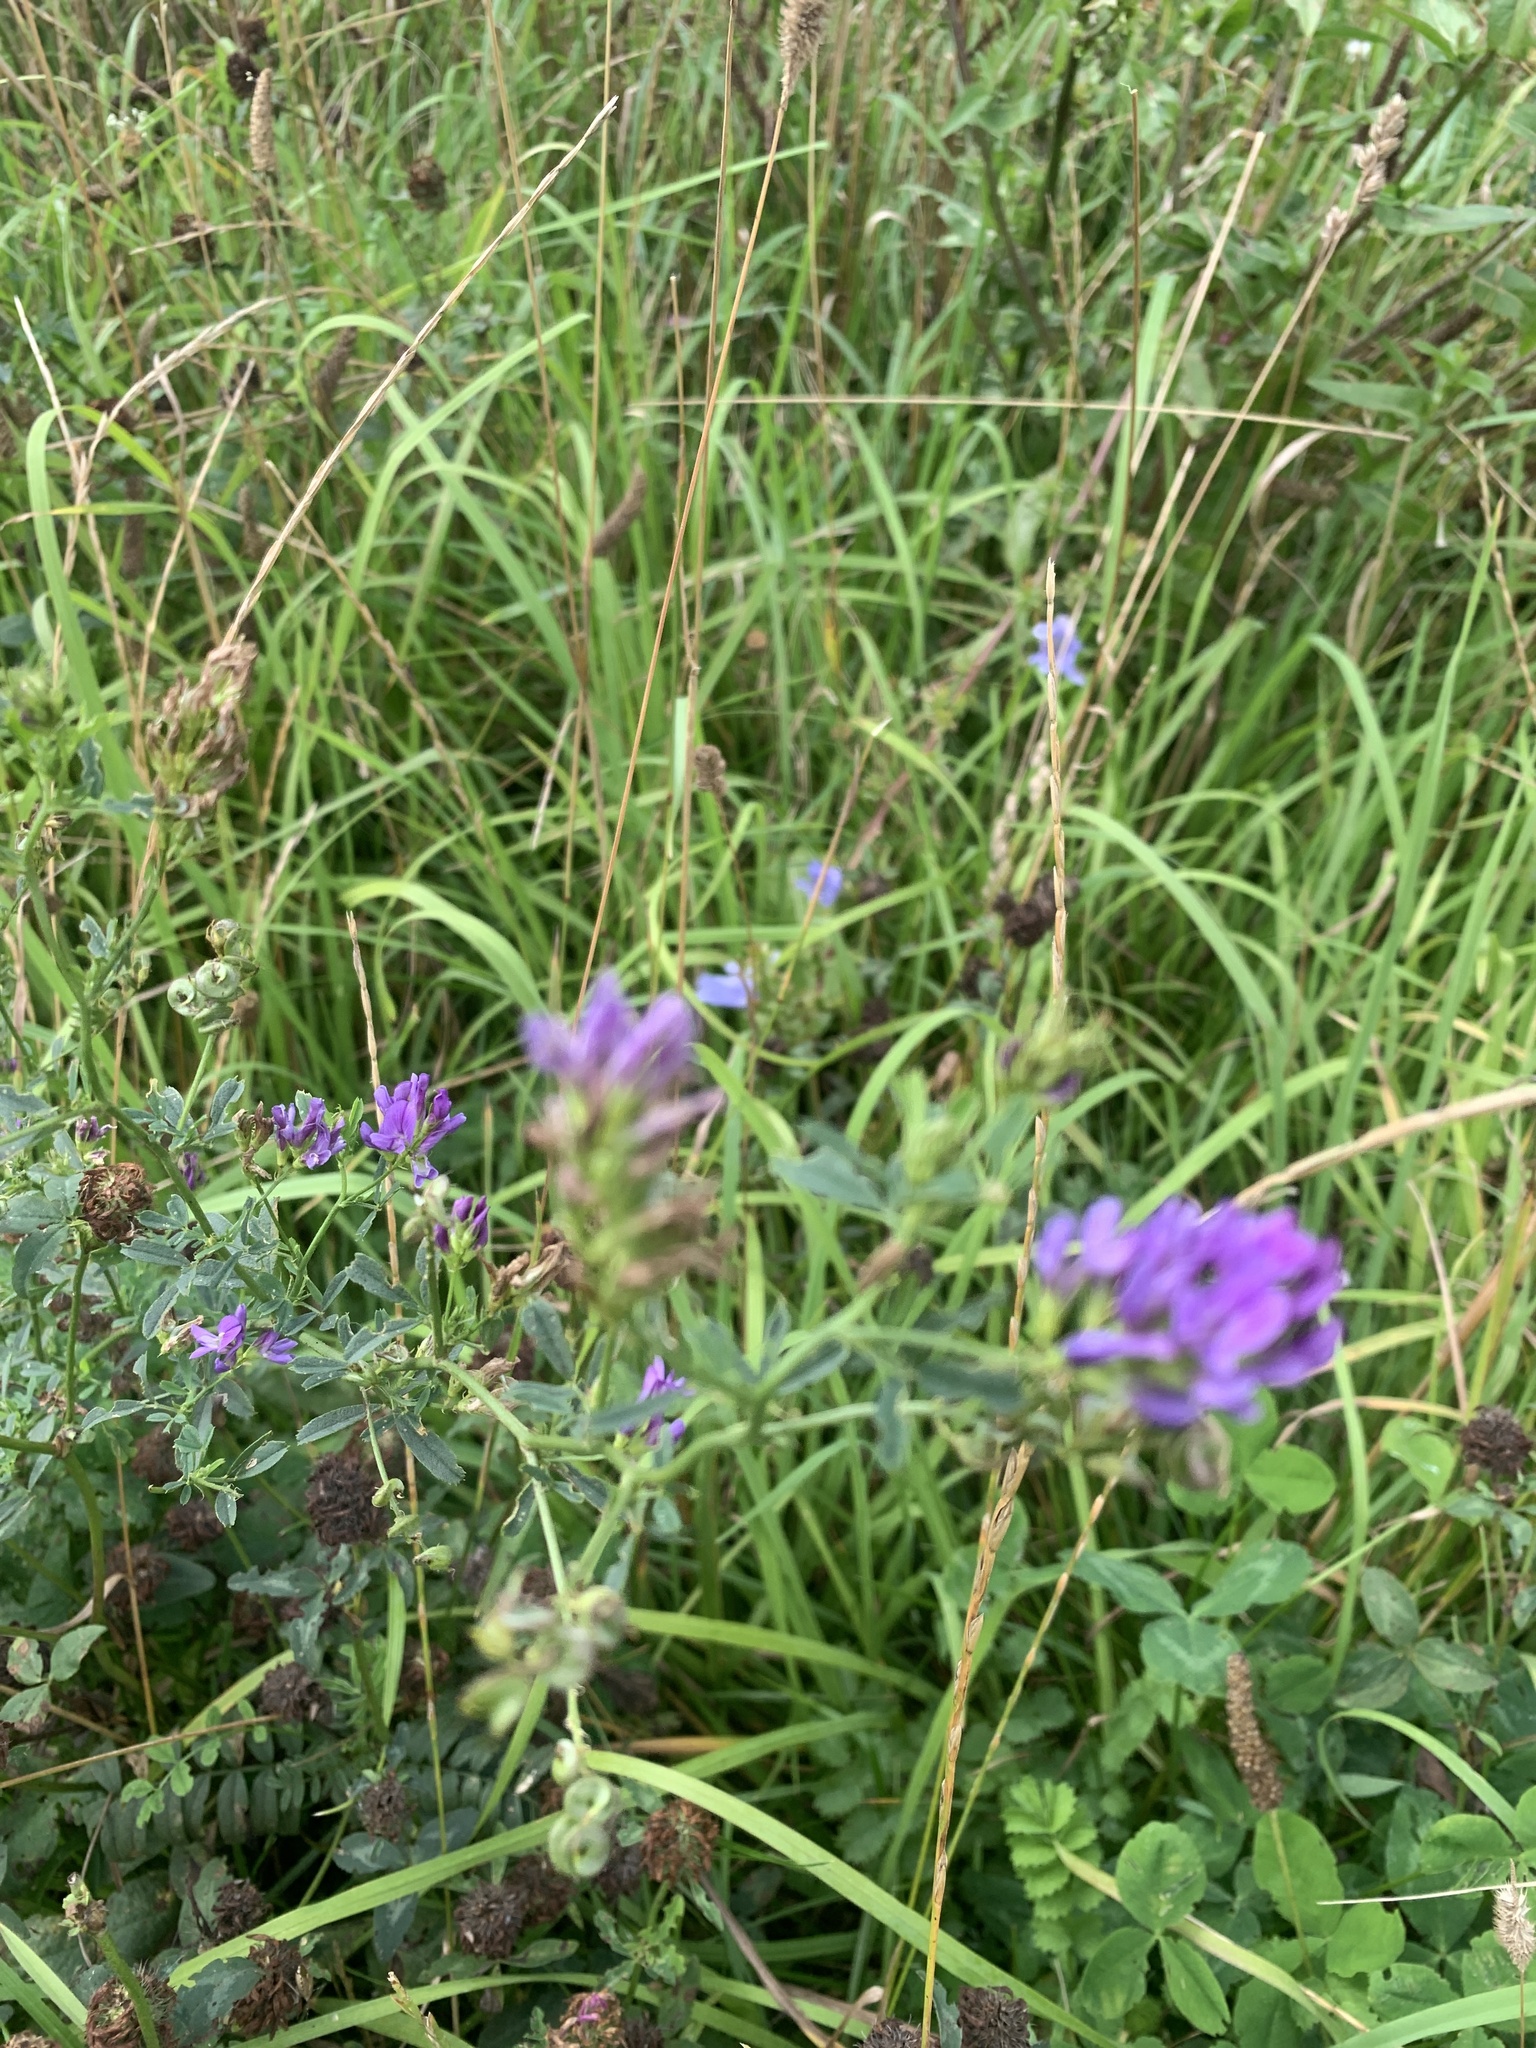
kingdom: Plantae
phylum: Tracheophyta
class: Magnoliopsida
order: Fabales
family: Fabaceae
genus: Medicago
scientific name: Medicago sativa
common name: Alfalfa
